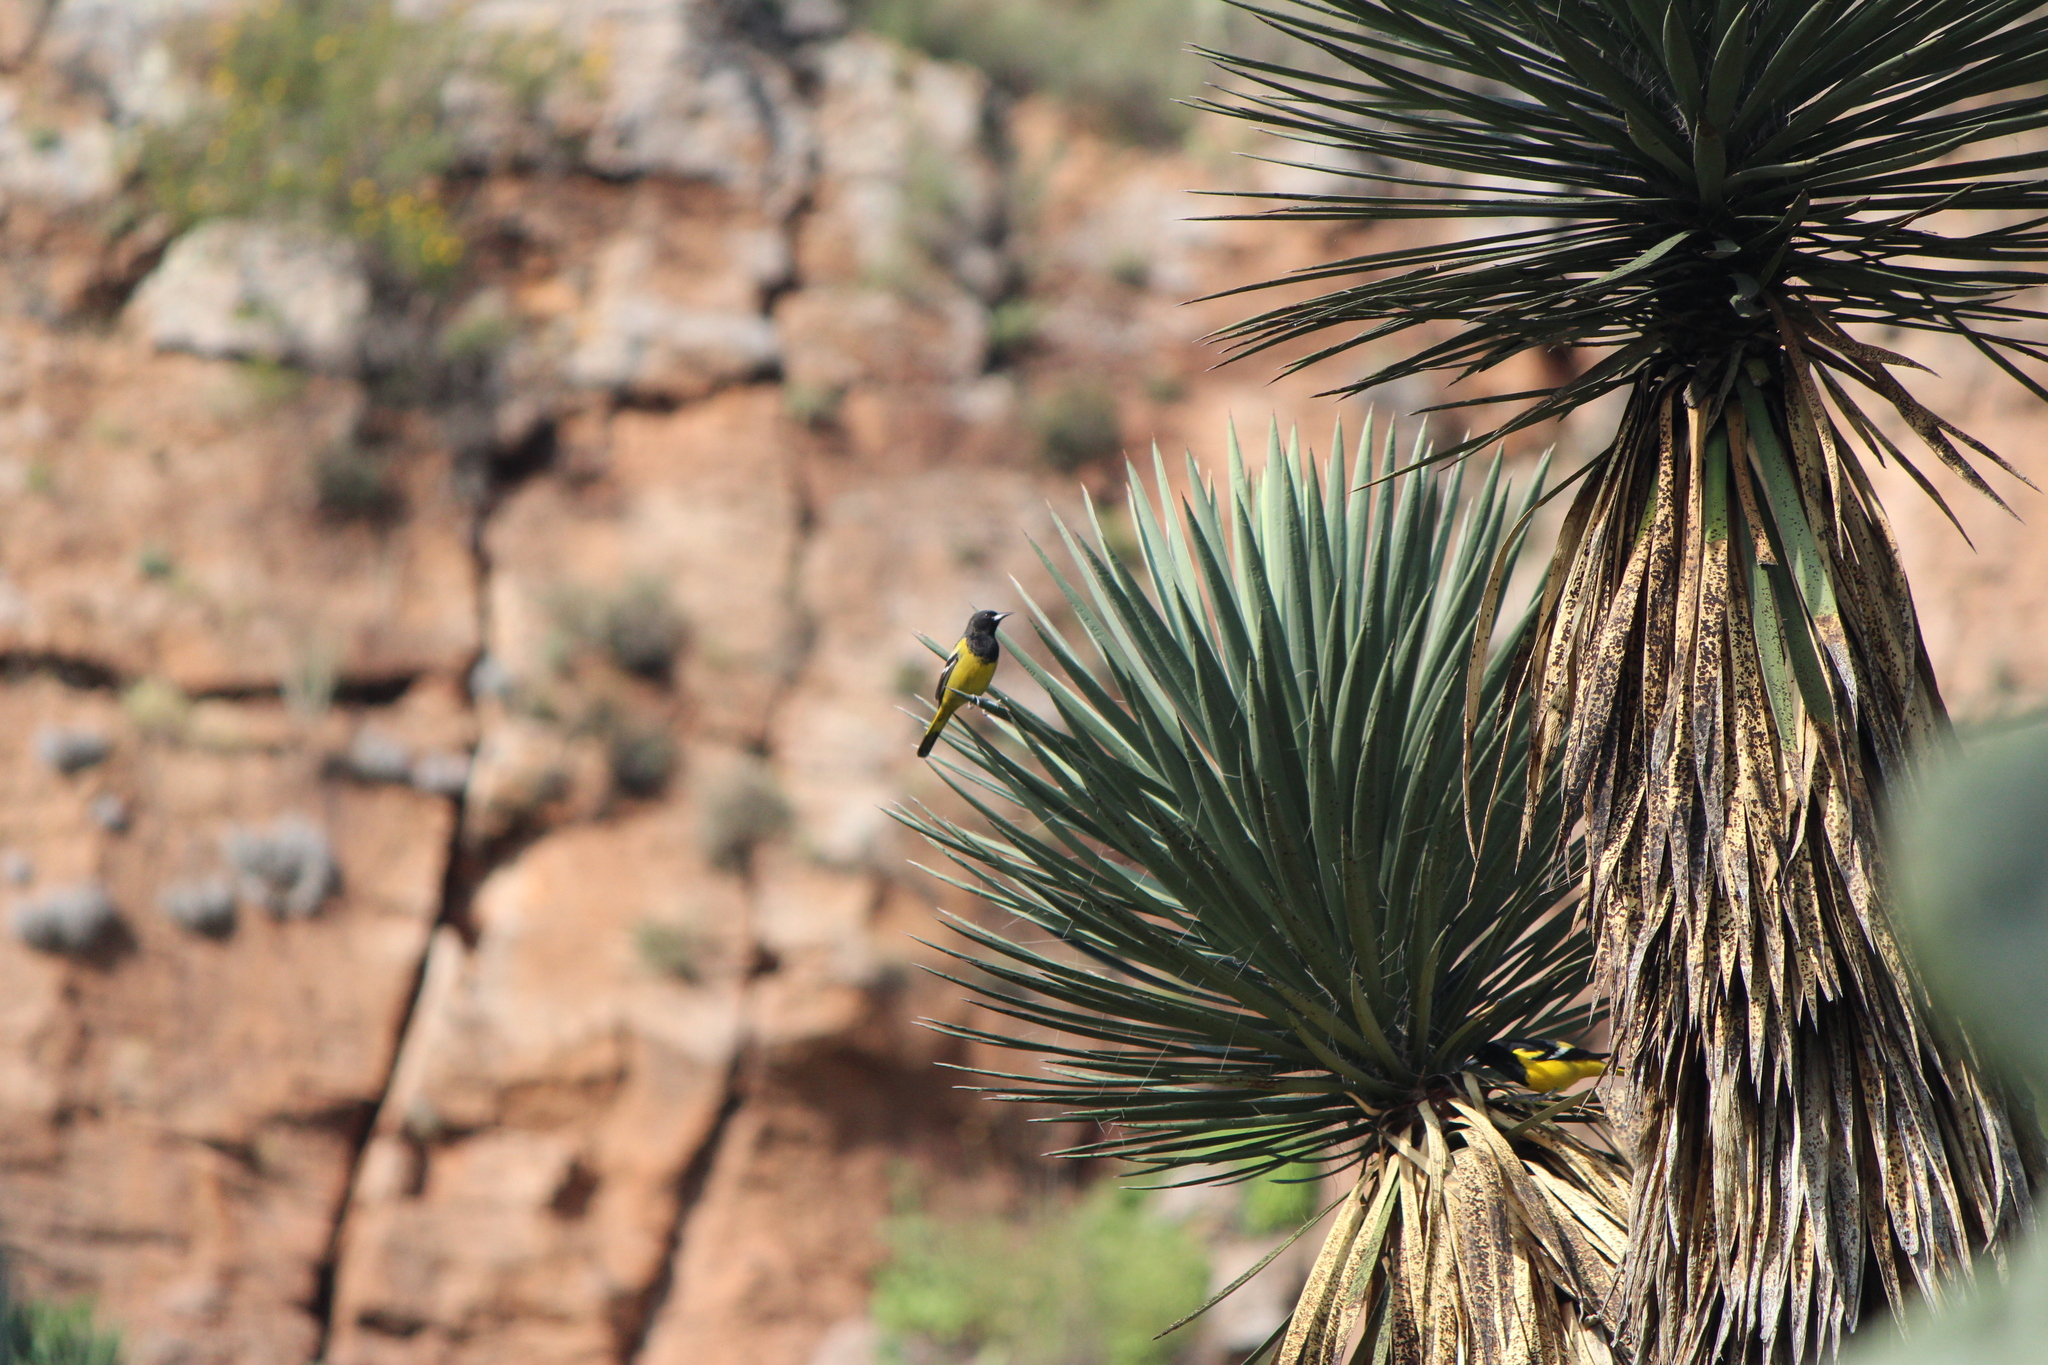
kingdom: Animalia
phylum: Chordata
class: Aves
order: Passeriformes
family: Icteridae
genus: Icterus
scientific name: Icterus parisorum
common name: Scott's oriole
